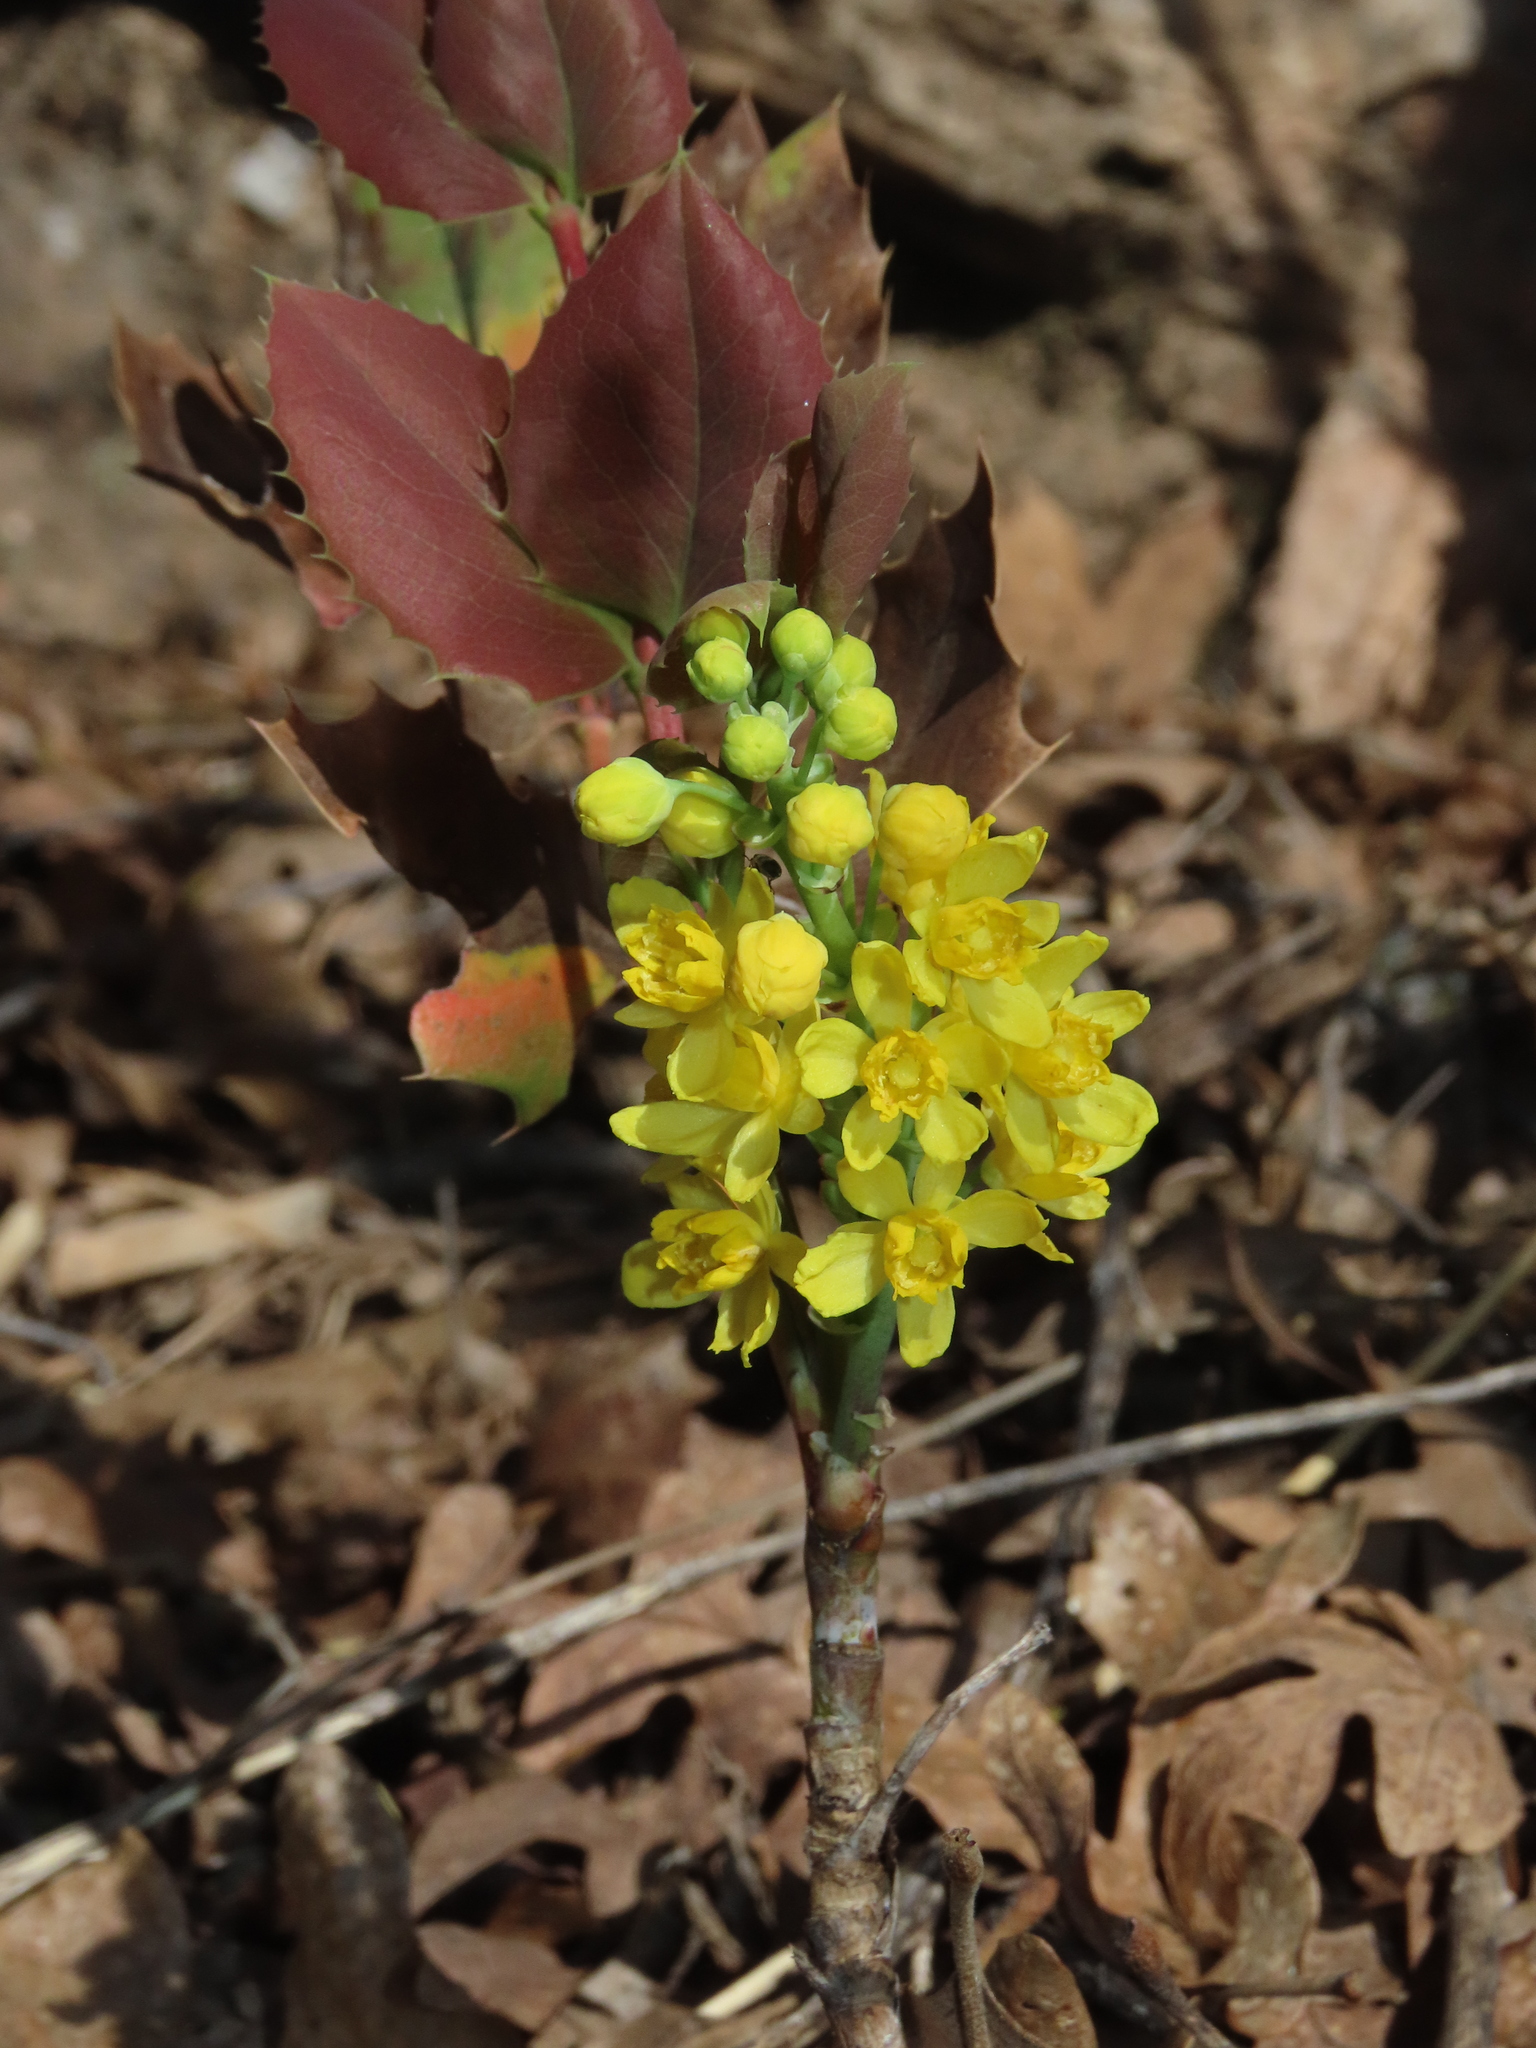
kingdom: Plantae
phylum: Tracheophyta
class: Magnoliopsida
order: Ranunculales
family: Berberidaceae
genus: Mahonia
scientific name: Mahonia repens
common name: Creeping oregon-grape
